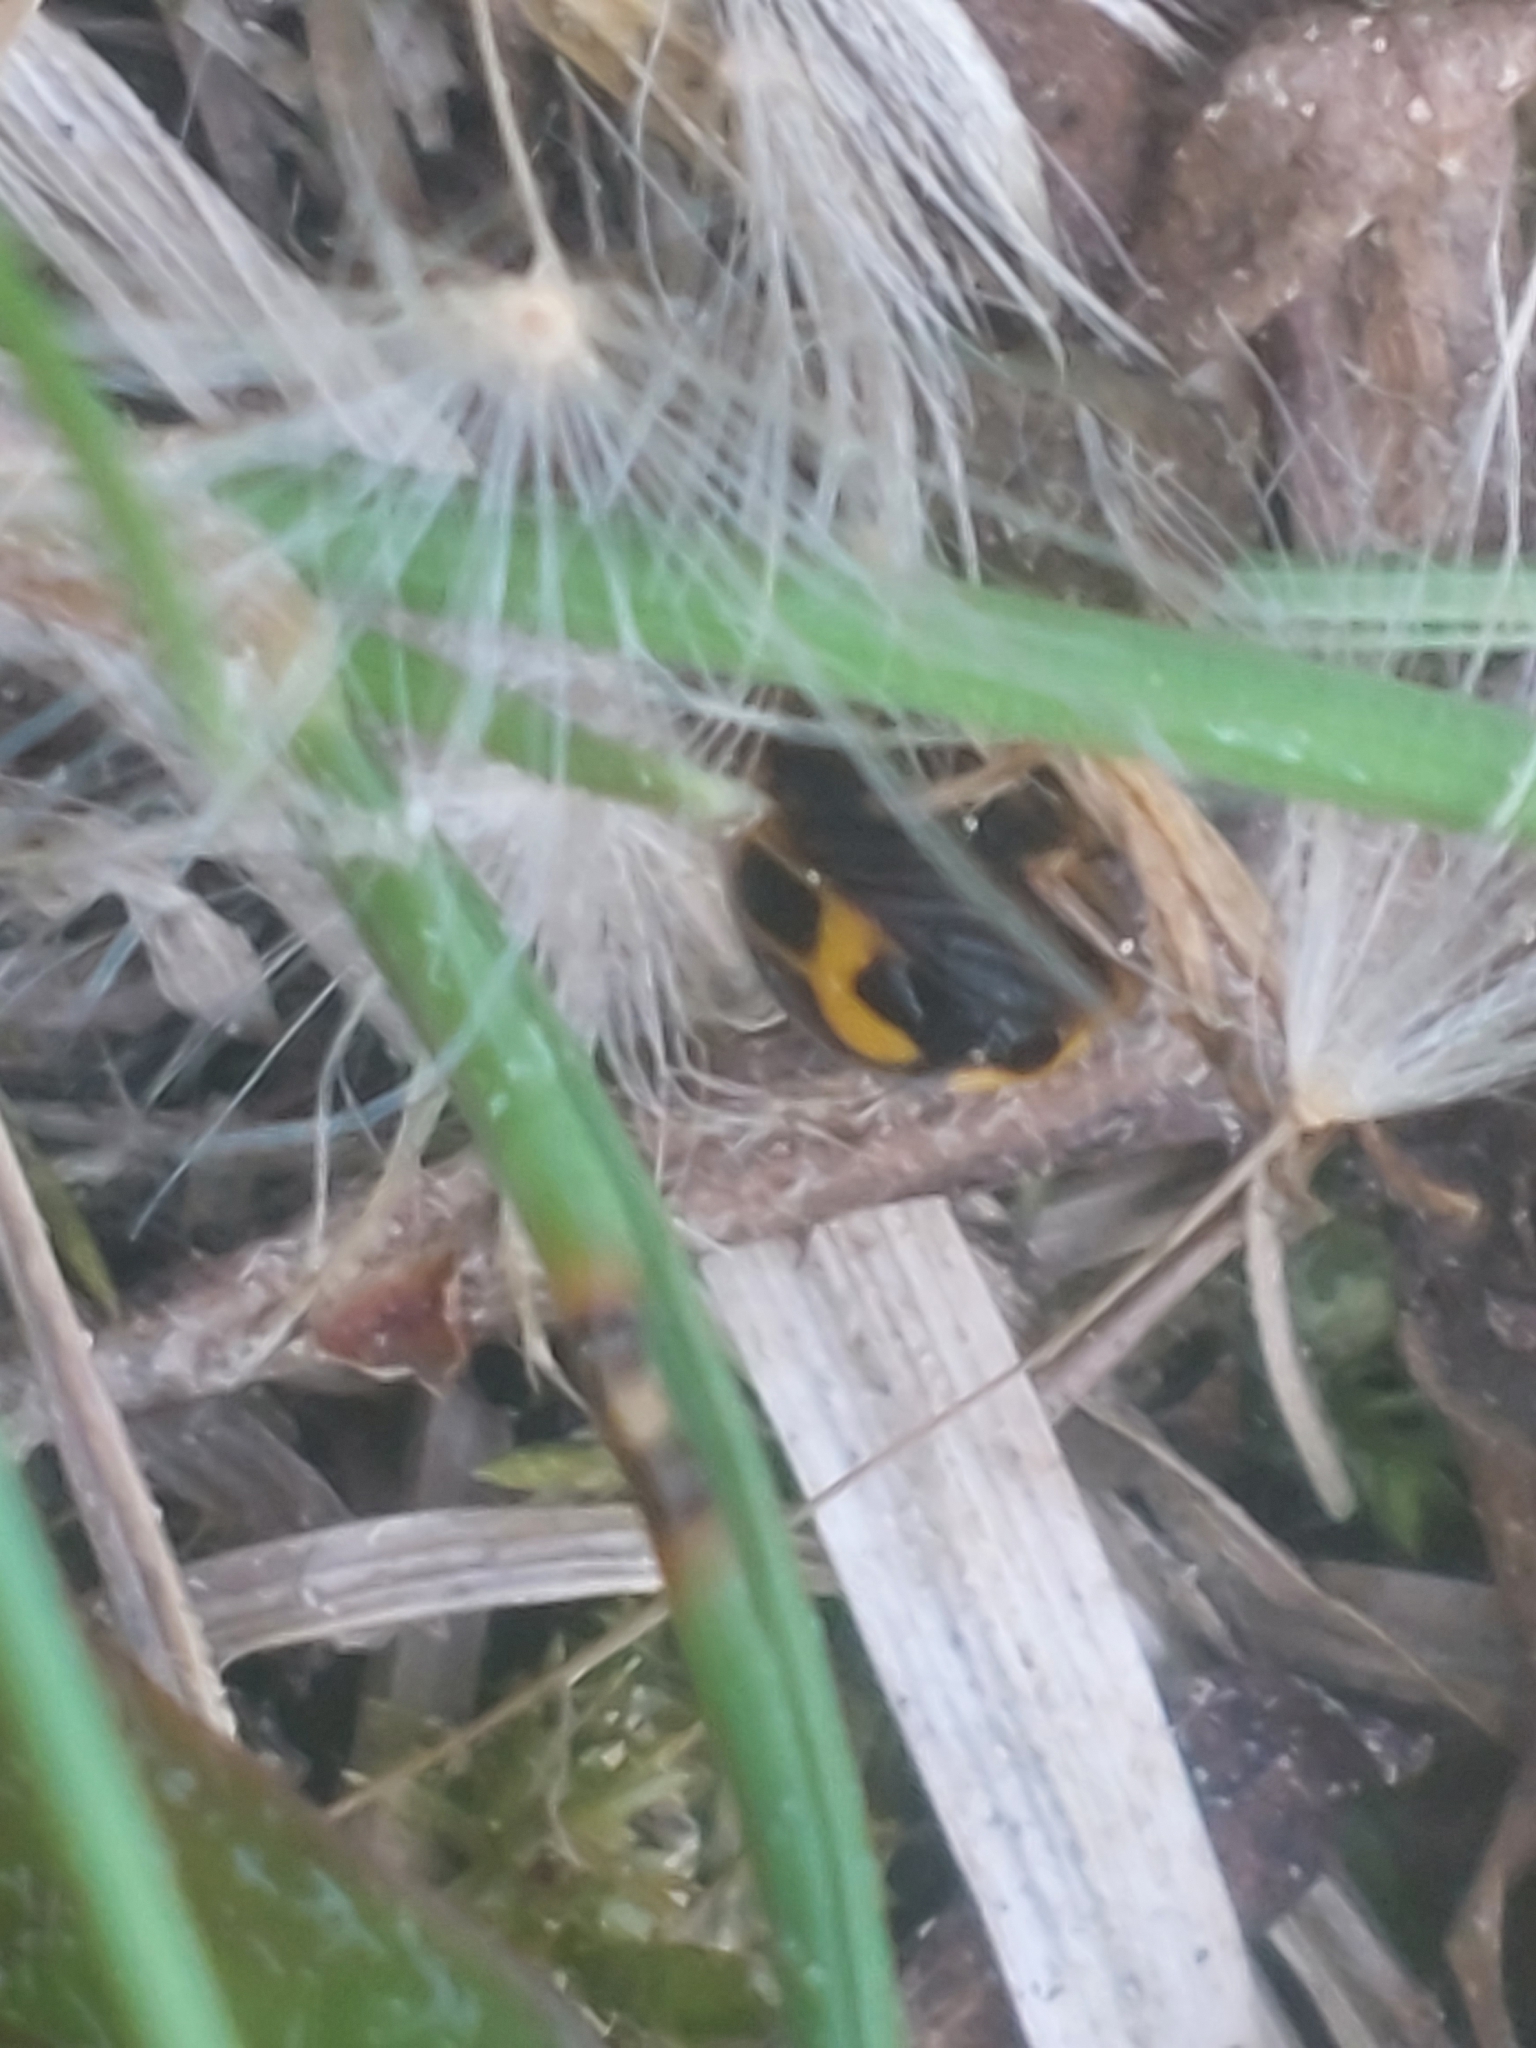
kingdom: Animalia
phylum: Arthropoda
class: Insecta
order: Coleoptera
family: Coccinellidae
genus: Propylaea
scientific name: Propylaea quatuordecimpunctata
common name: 14-spotted ladybird beetle
